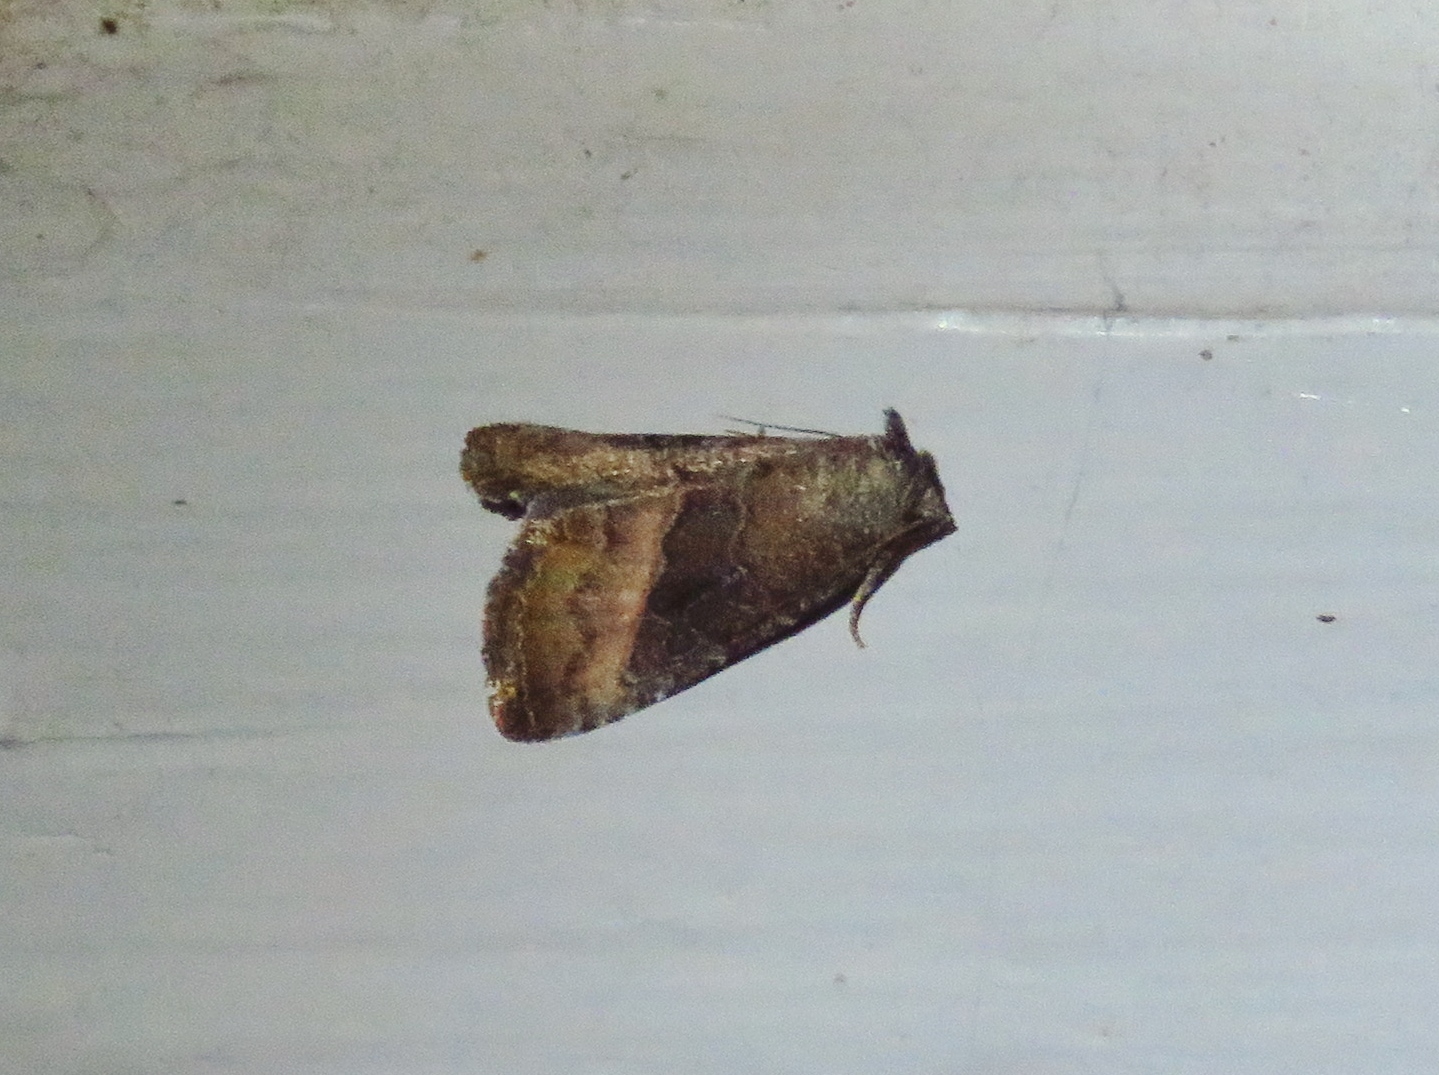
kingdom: Animalia
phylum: Arthropoda
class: Insecta
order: Lepidoptera
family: Noctuidae
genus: Ogdoconta
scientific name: Ogdoconta cinereola
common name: Common pinkband
